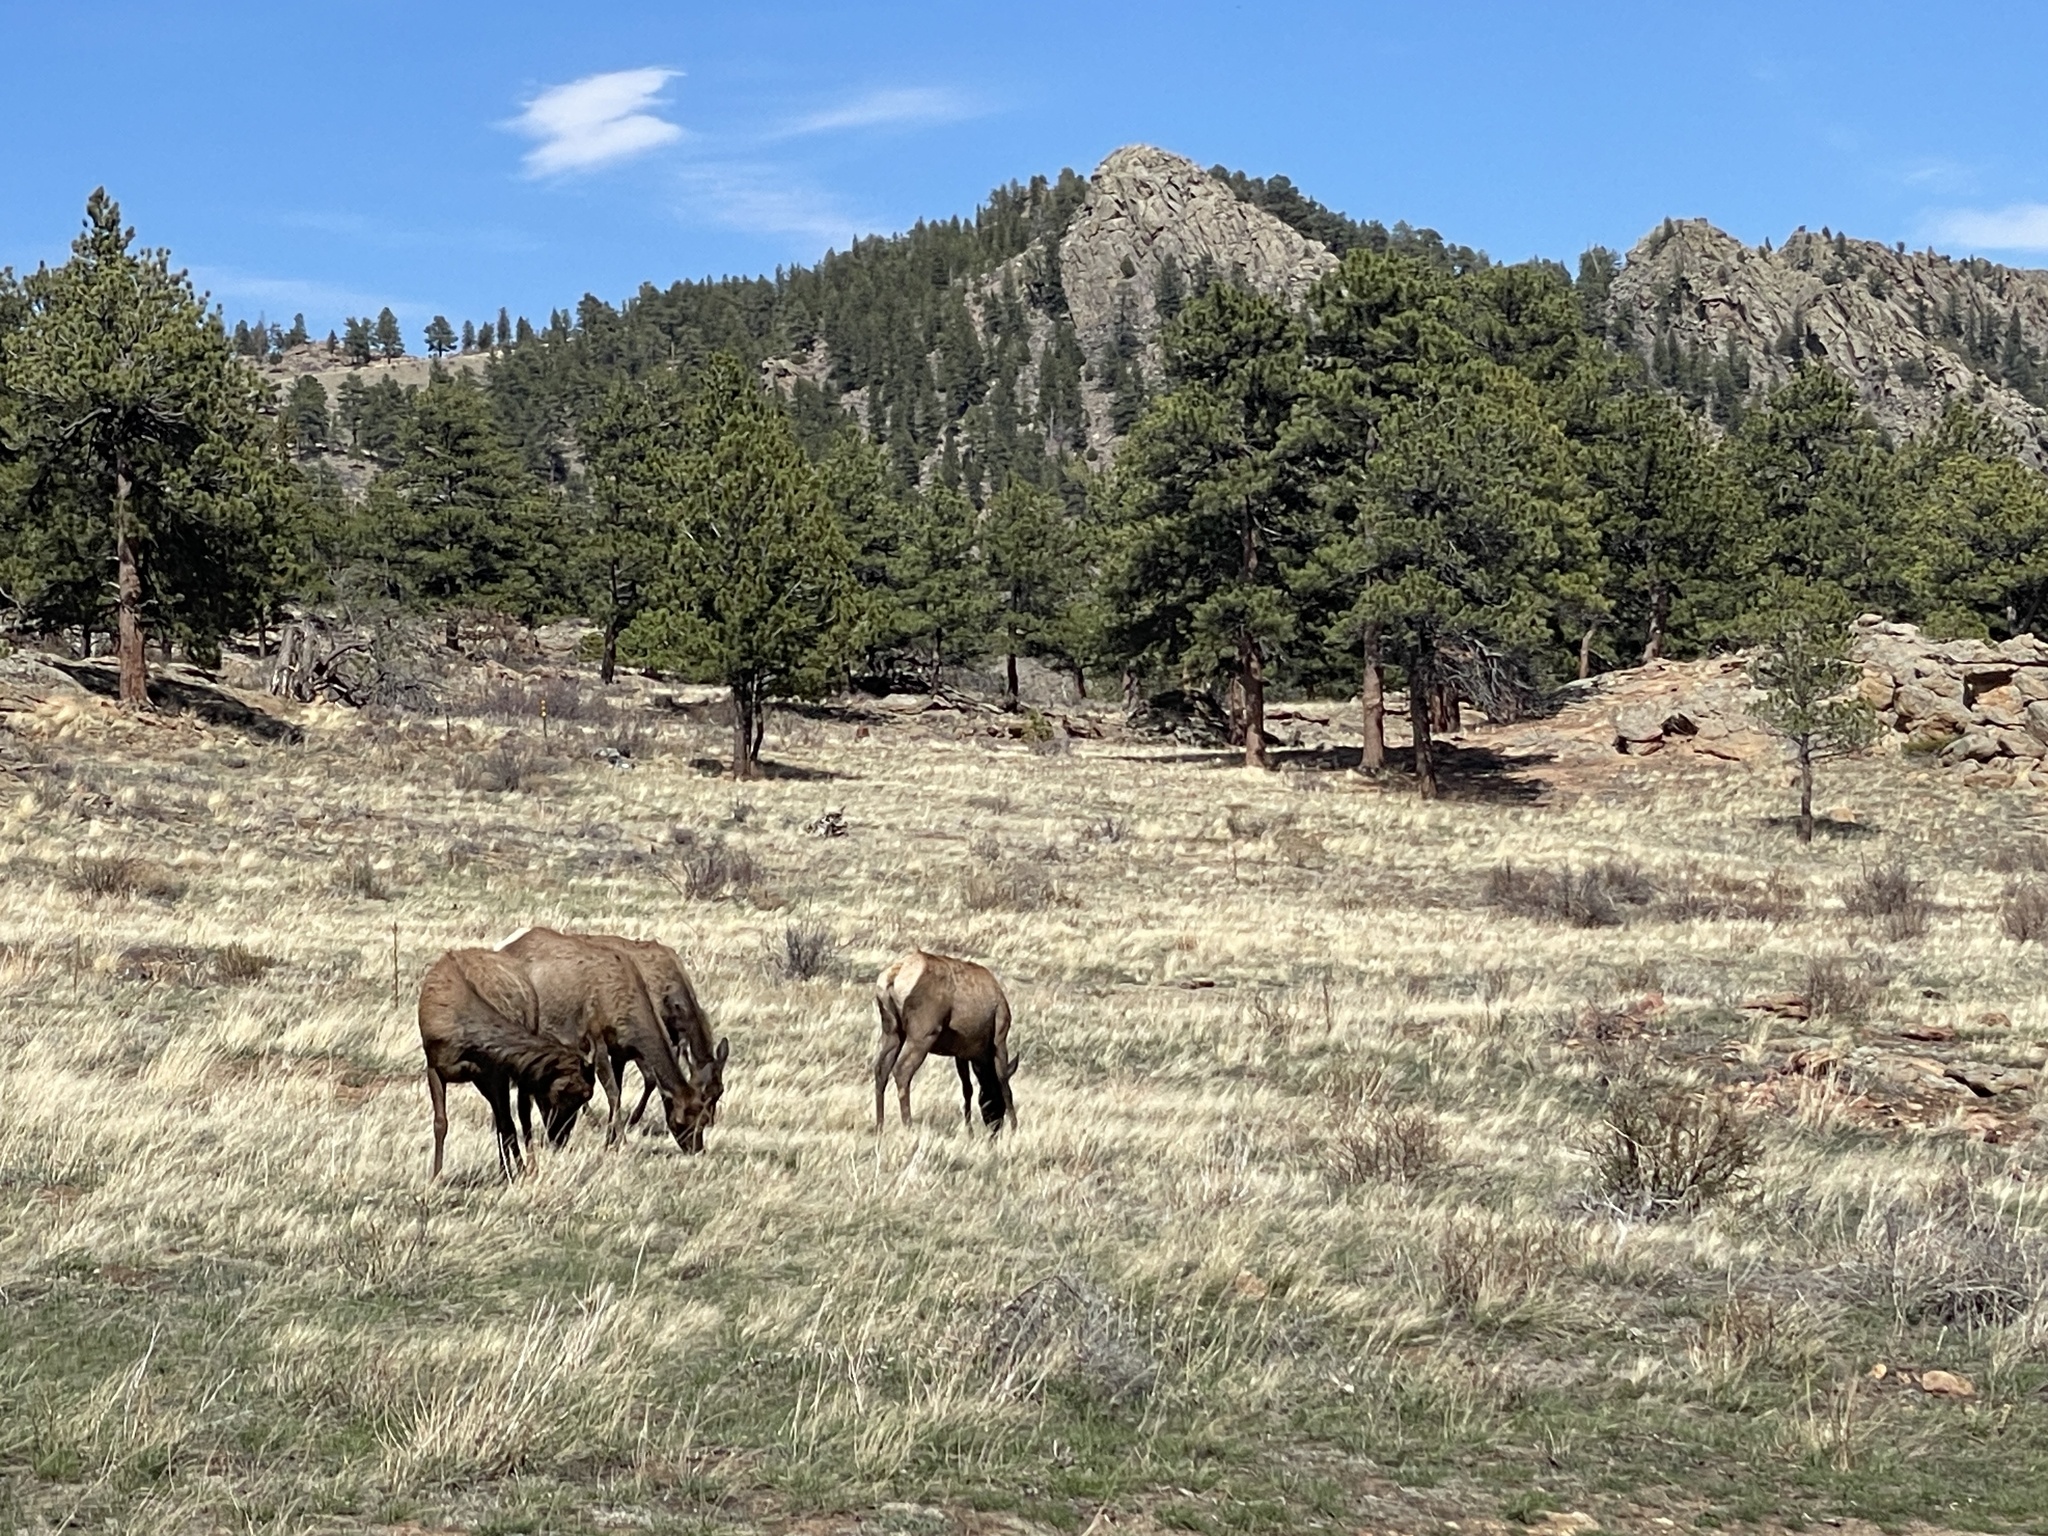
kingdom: Animalia
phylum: Chordata
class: Mammalia
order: Artiodactyla
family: Cervidae
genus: Cervus
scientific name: Cervus elaphus
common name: Red deer
